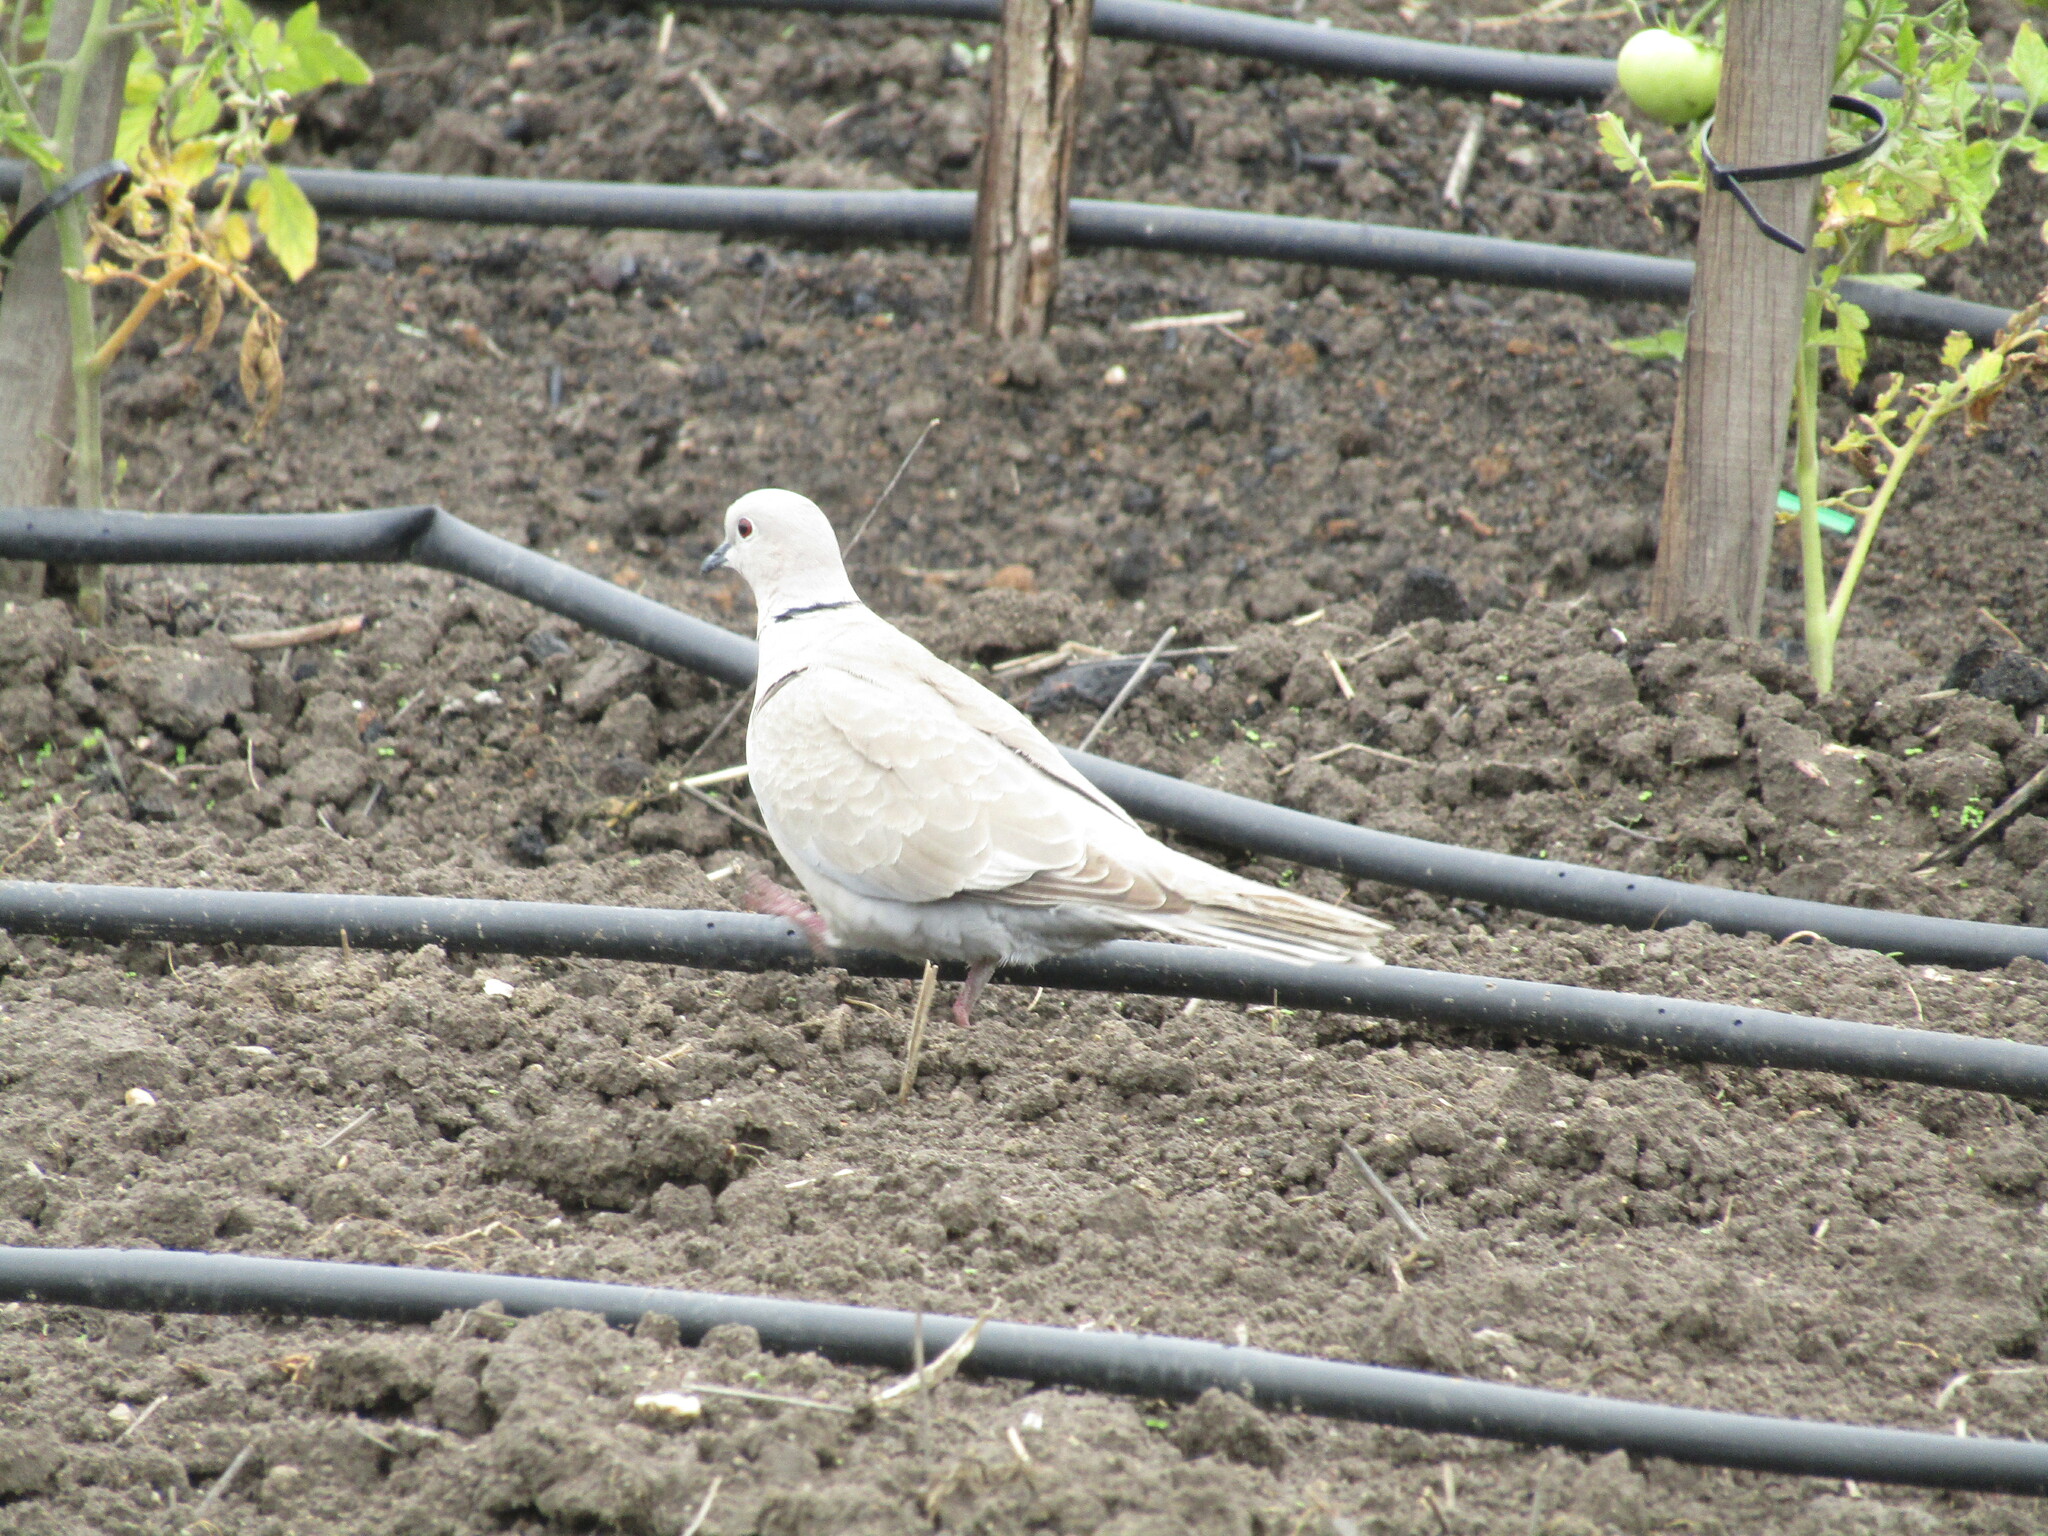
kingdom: Animalia
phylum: Chordata
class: Aves
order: Columbiformes
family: Columbidae
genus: Streptopelia
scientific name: Streptopelia decaocto
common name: Eurasian collared dove
